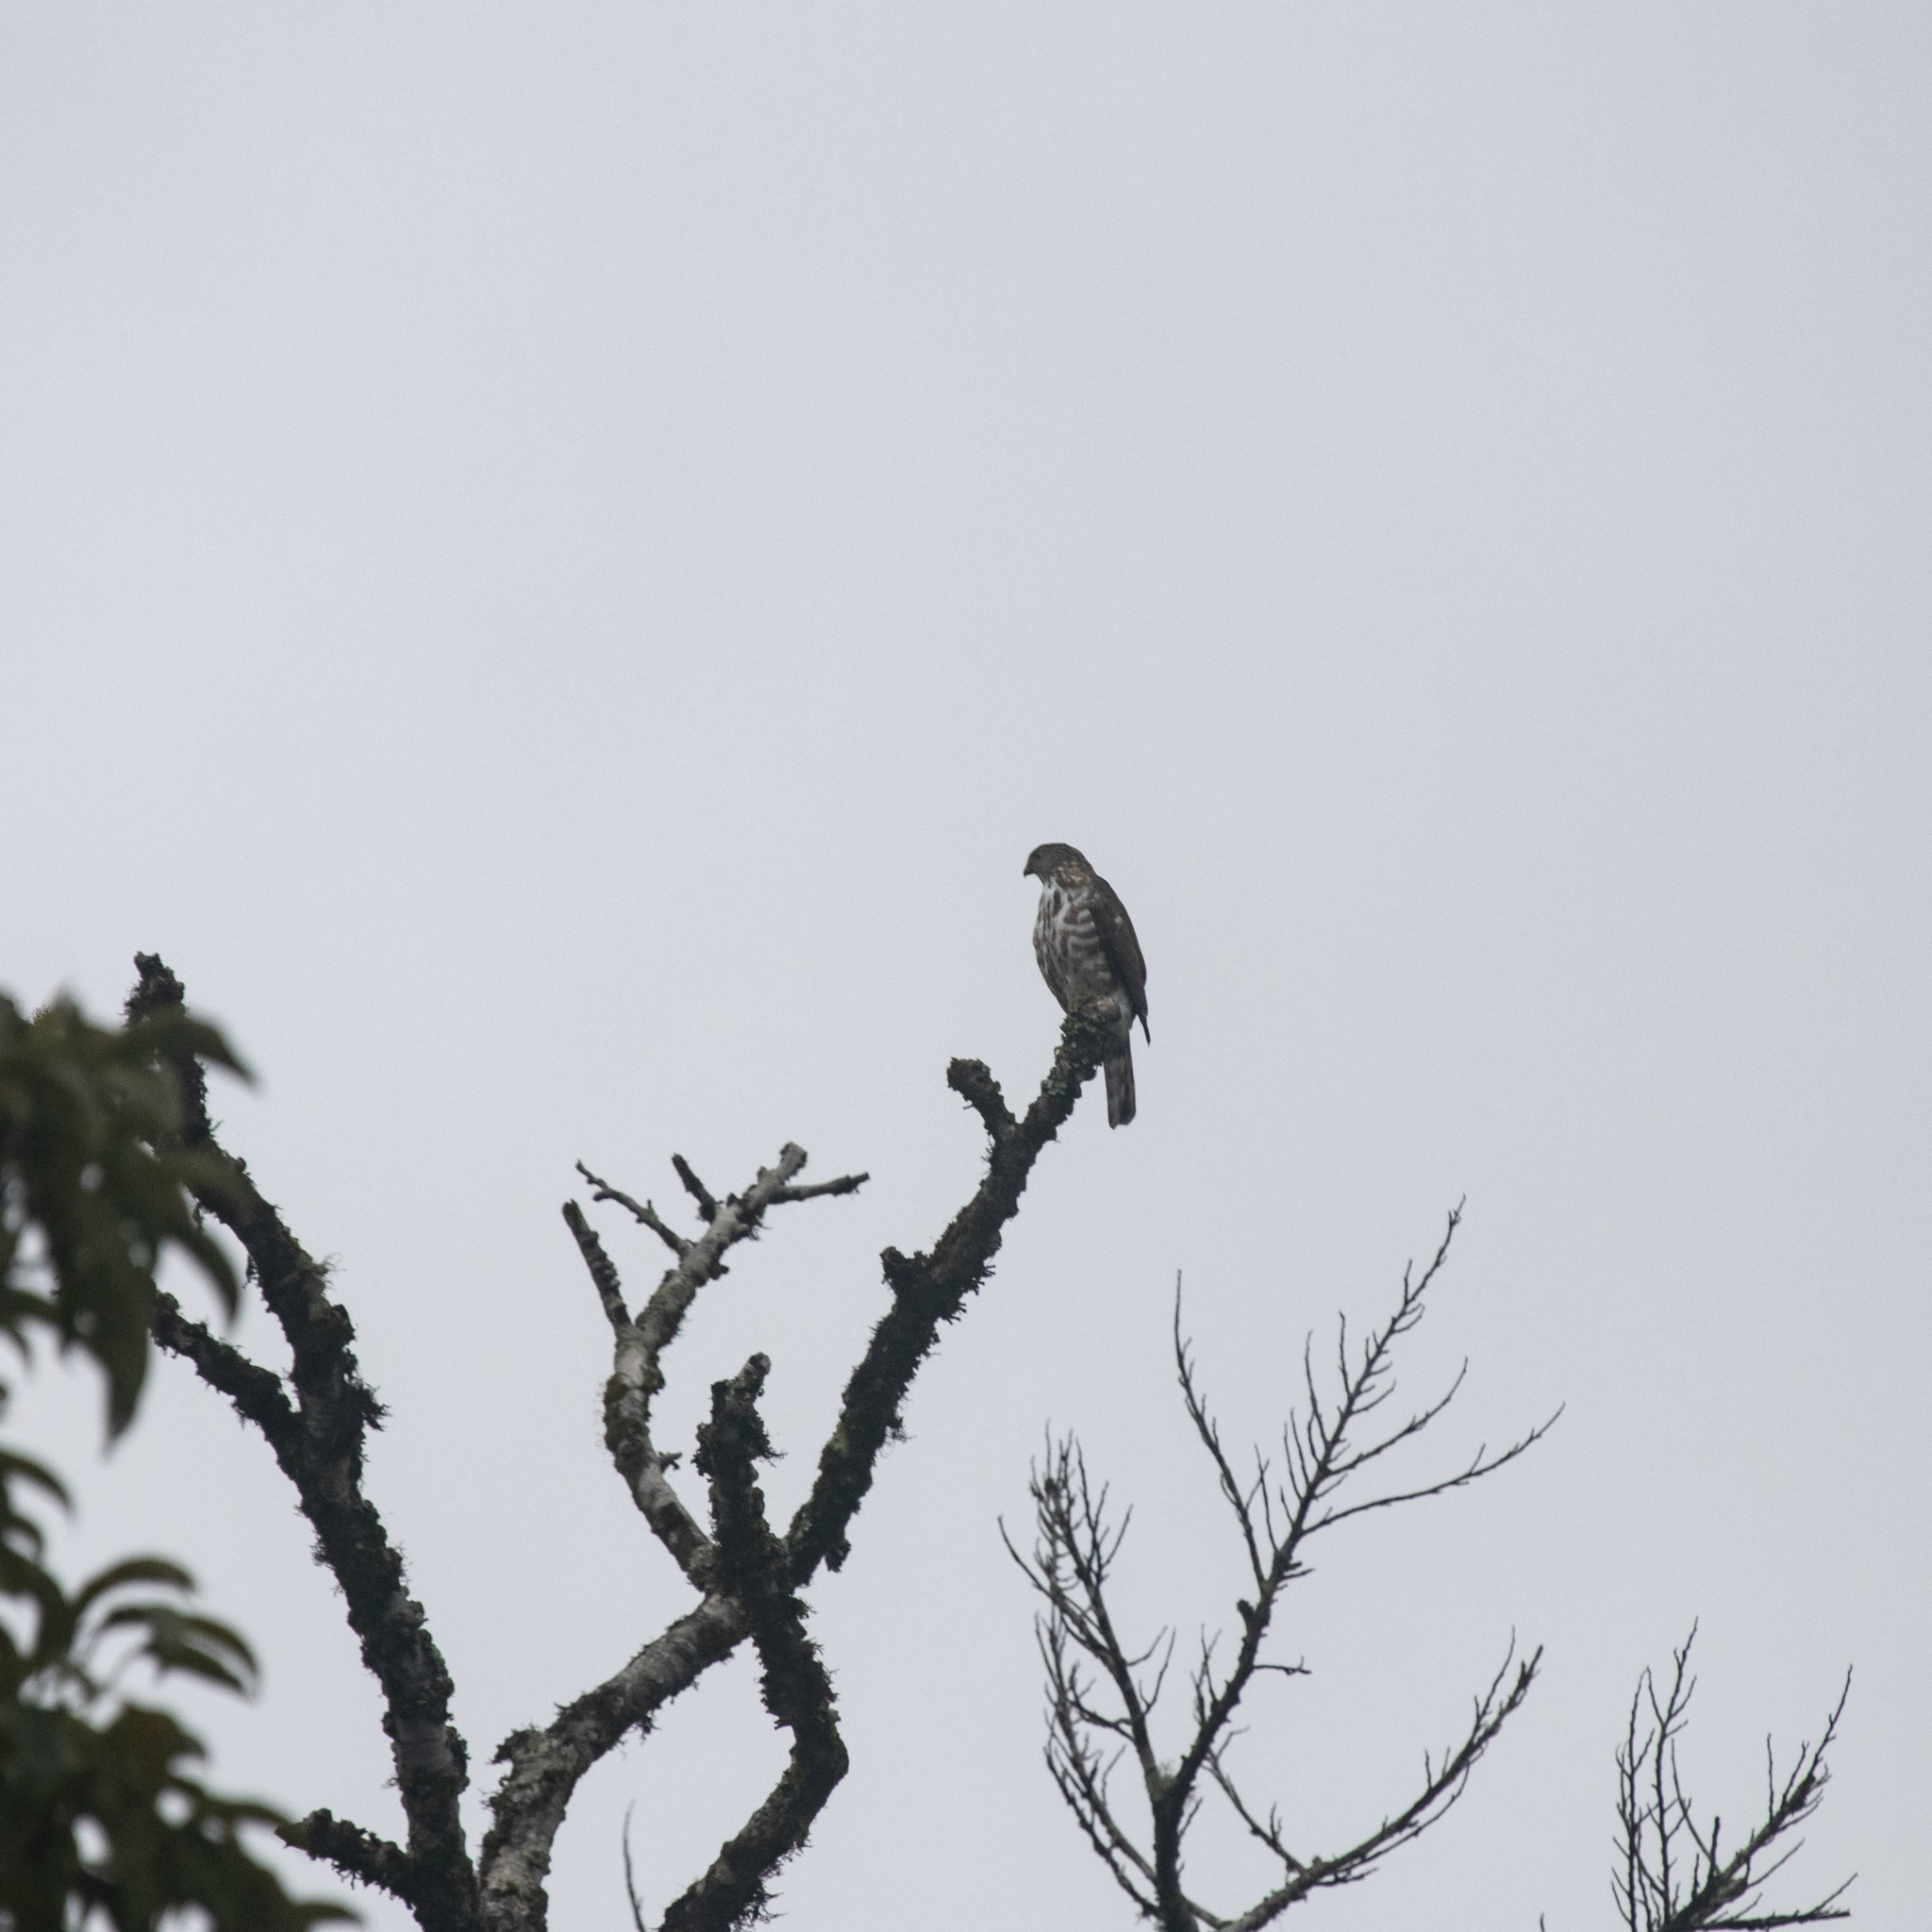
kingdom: Animalia
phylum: Chordata
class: Aves
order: Accipitriformes
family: Accipitridae
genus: Accipiter
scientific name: Accipiter trivirgatus
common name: Crested goshawk
